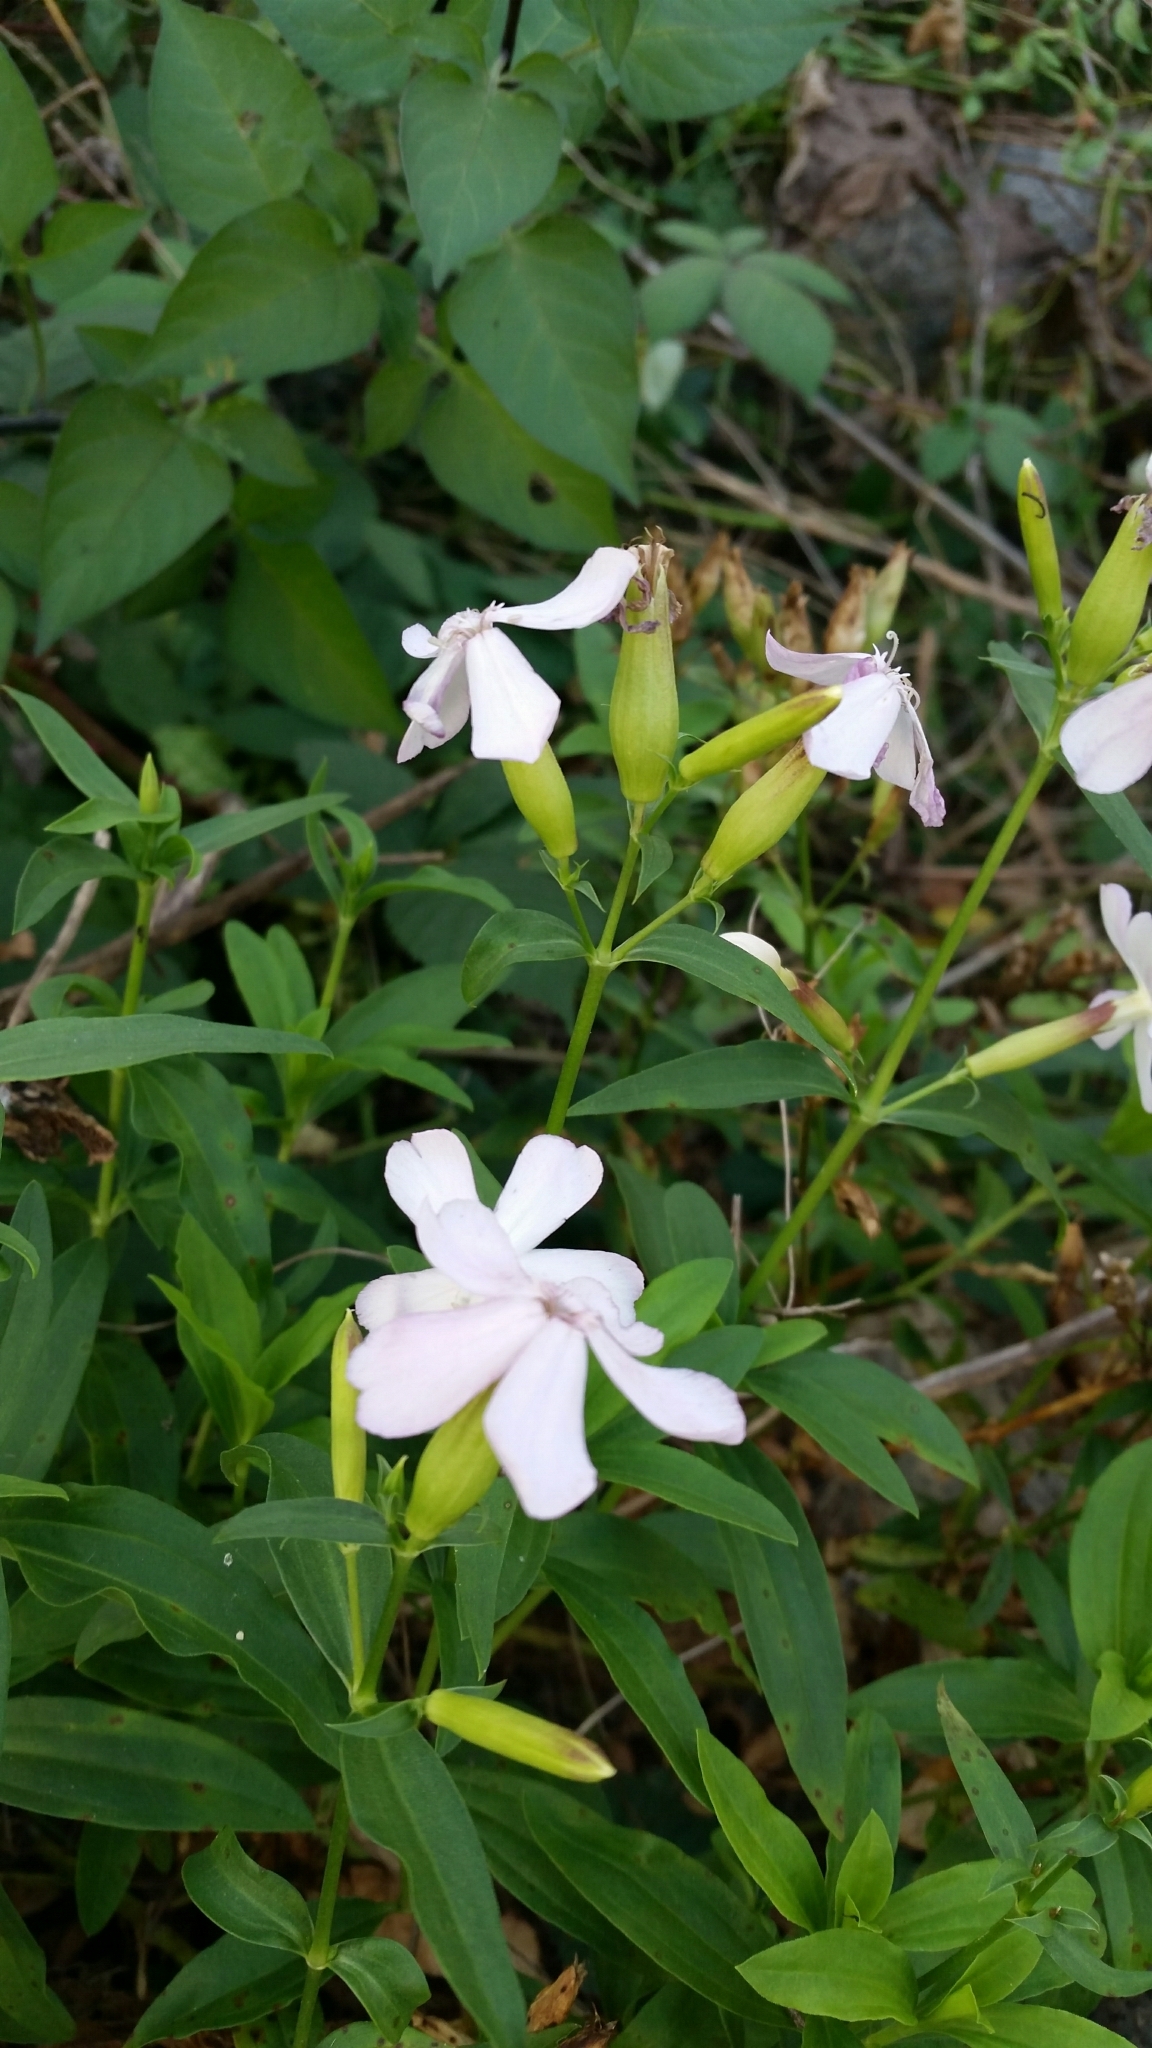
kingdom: Plantae
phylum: Tracheophyta
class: Magnoliopsida
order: Caryophyllales
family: Caryophyllaceae
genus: Saponaria
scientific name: Saponaria officinalis
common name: Soapwort
